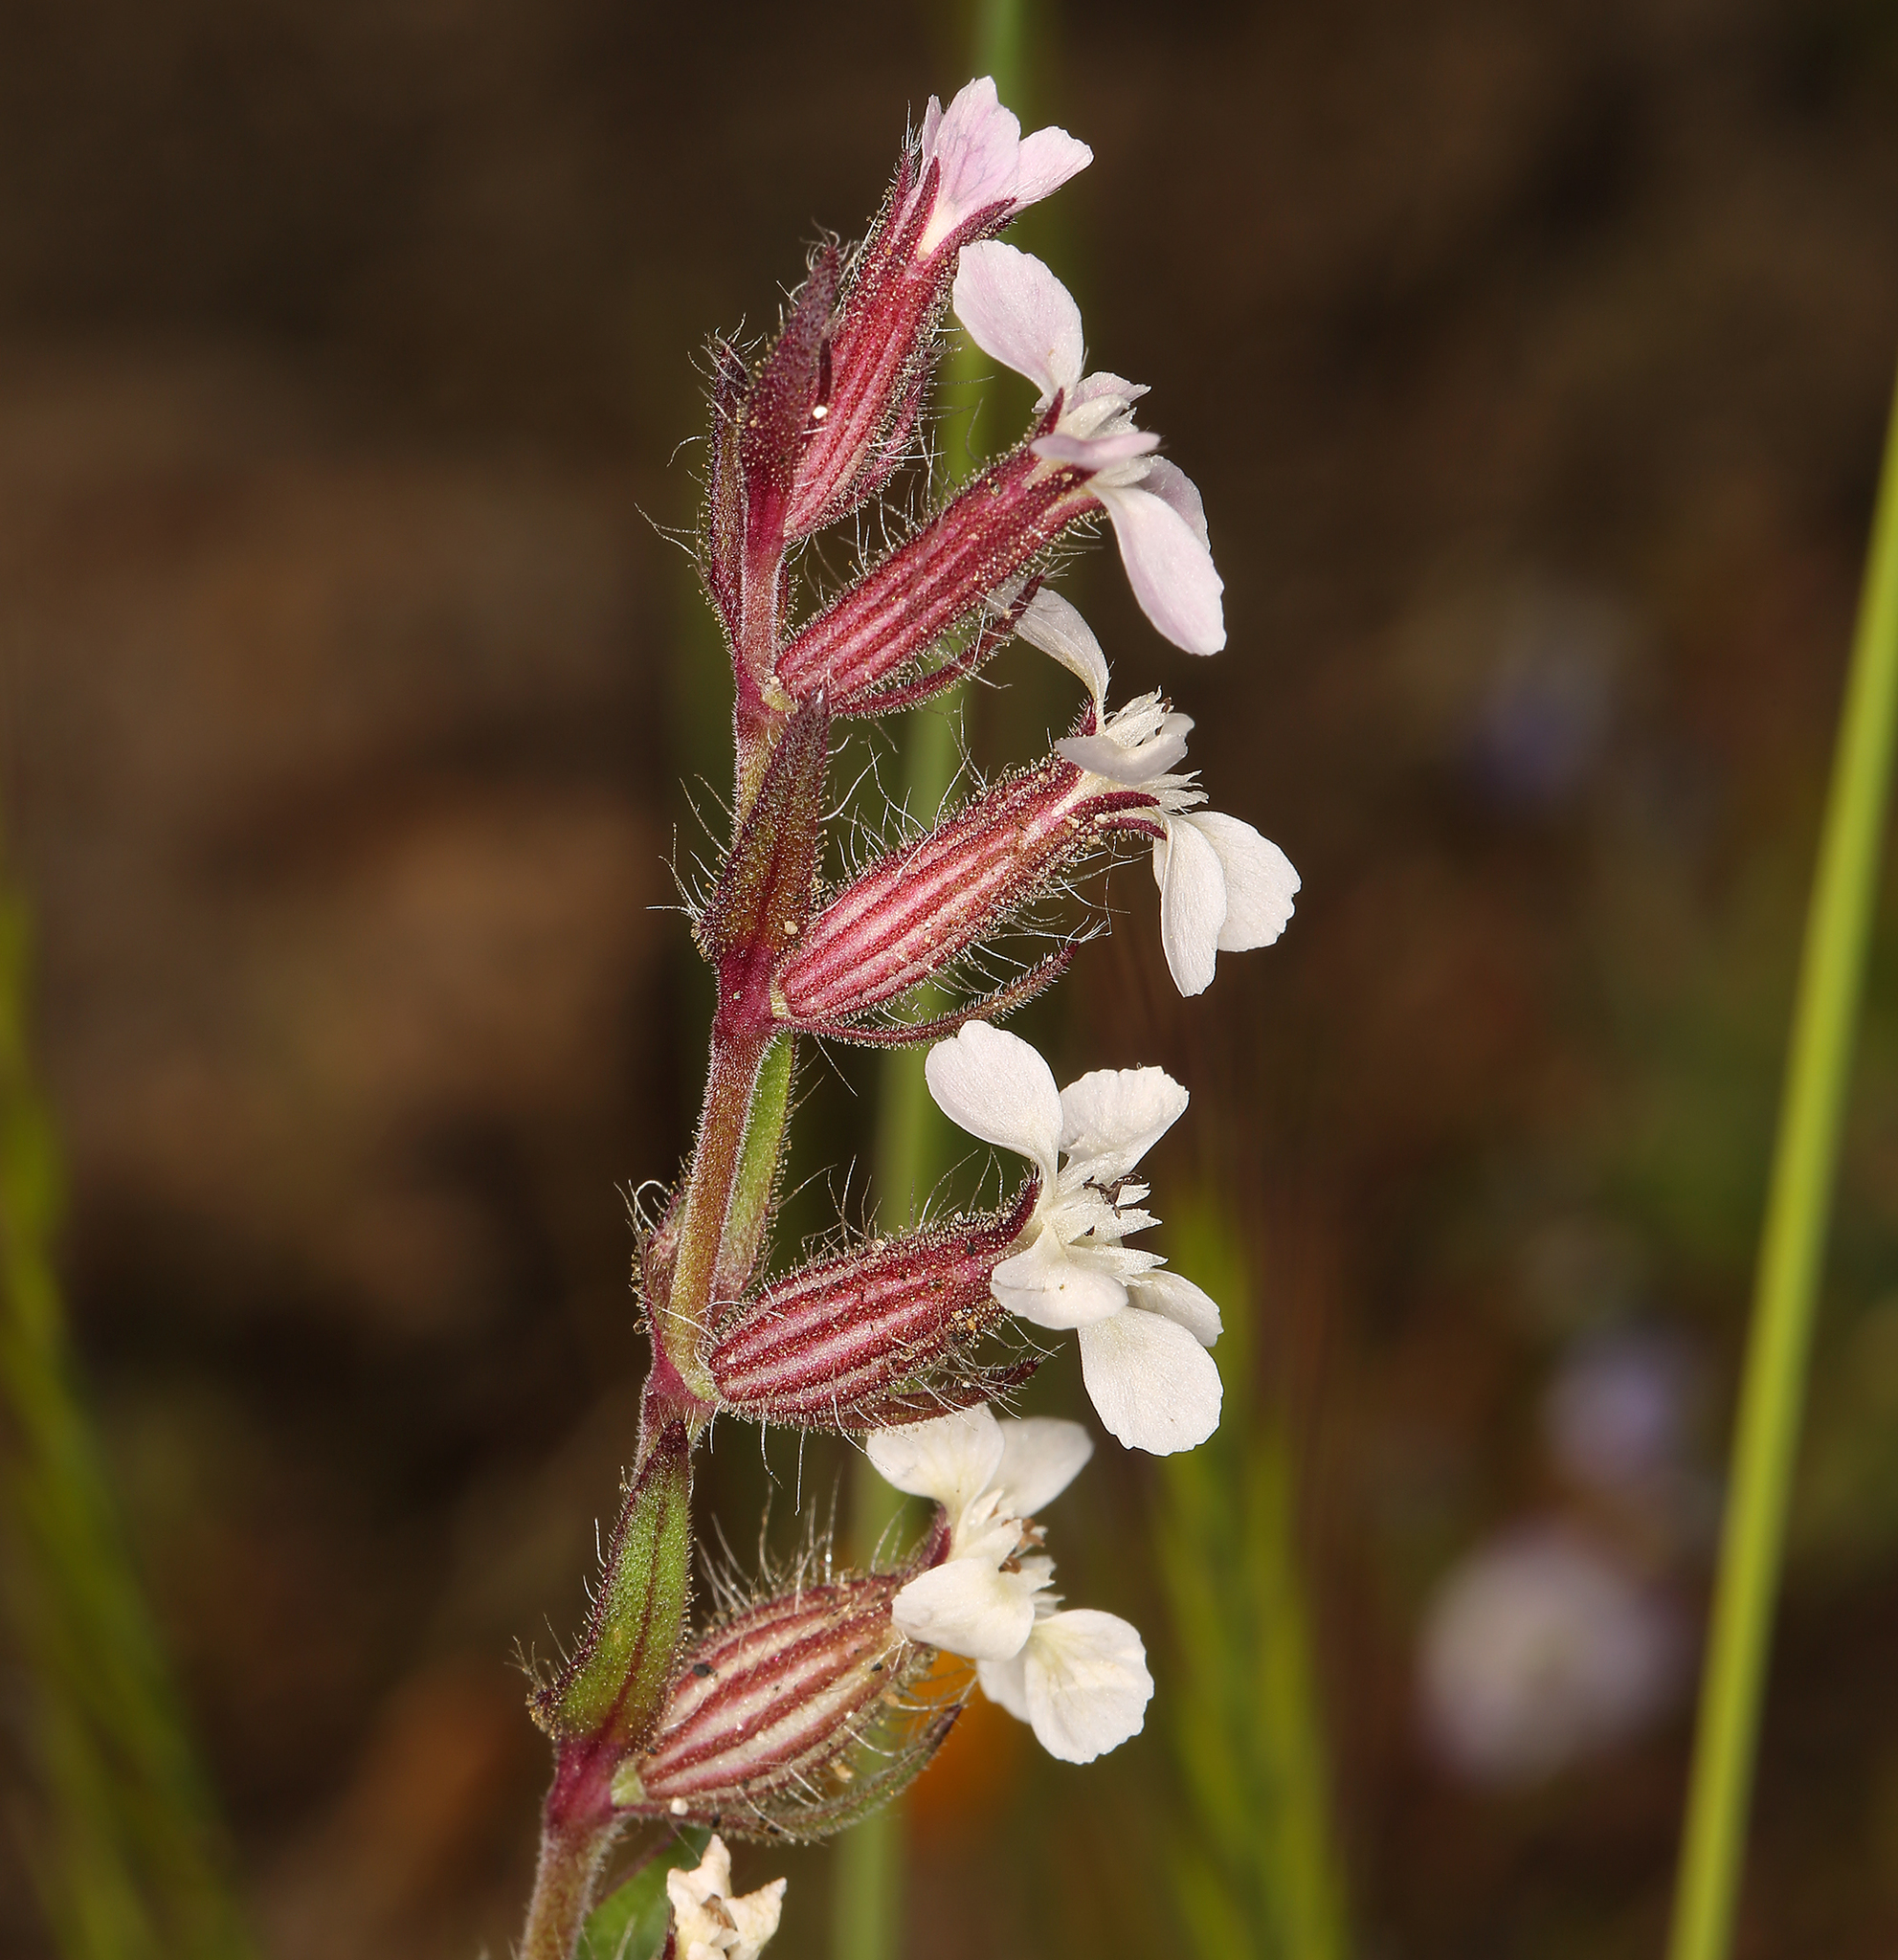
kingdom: Plantae
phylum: Tracheophyta
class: Magnoliopsida
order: Caryophyllales
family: Caryophyllaceae
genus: Silene
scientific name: Silene gallica
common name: Small-flowered catchfly
